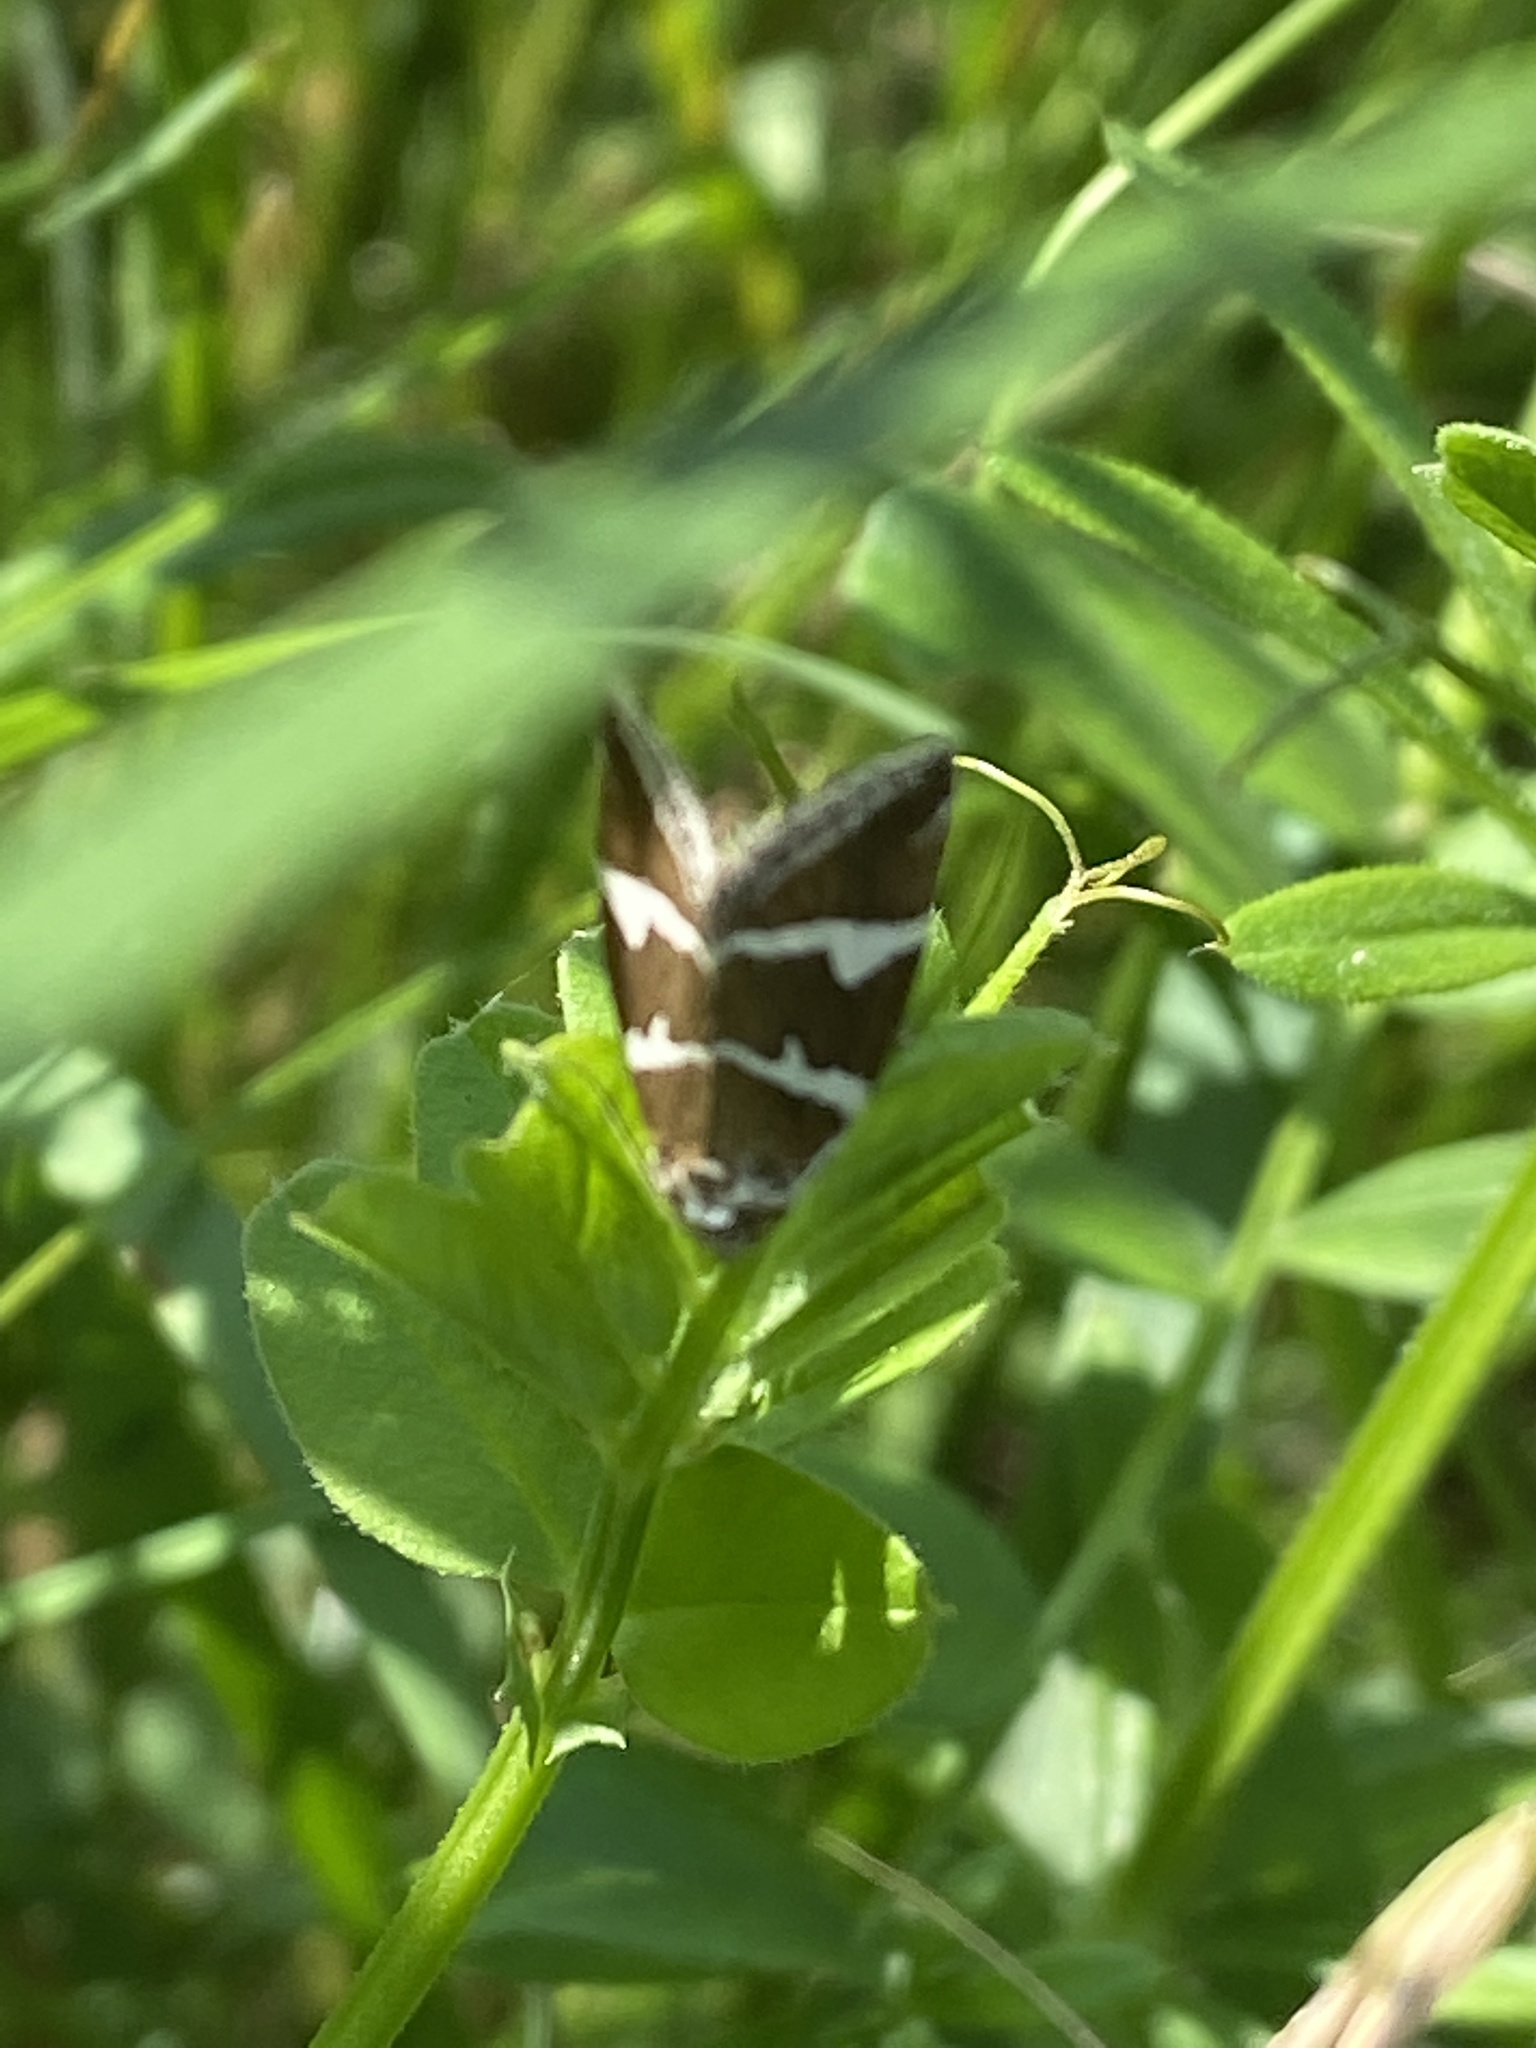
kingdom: Animalia
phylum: Arthropoda
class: Insecta
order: Lepidoptera
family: Noctuidae
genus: Deltote
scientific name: Deltote bankiana
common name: Silver barred
